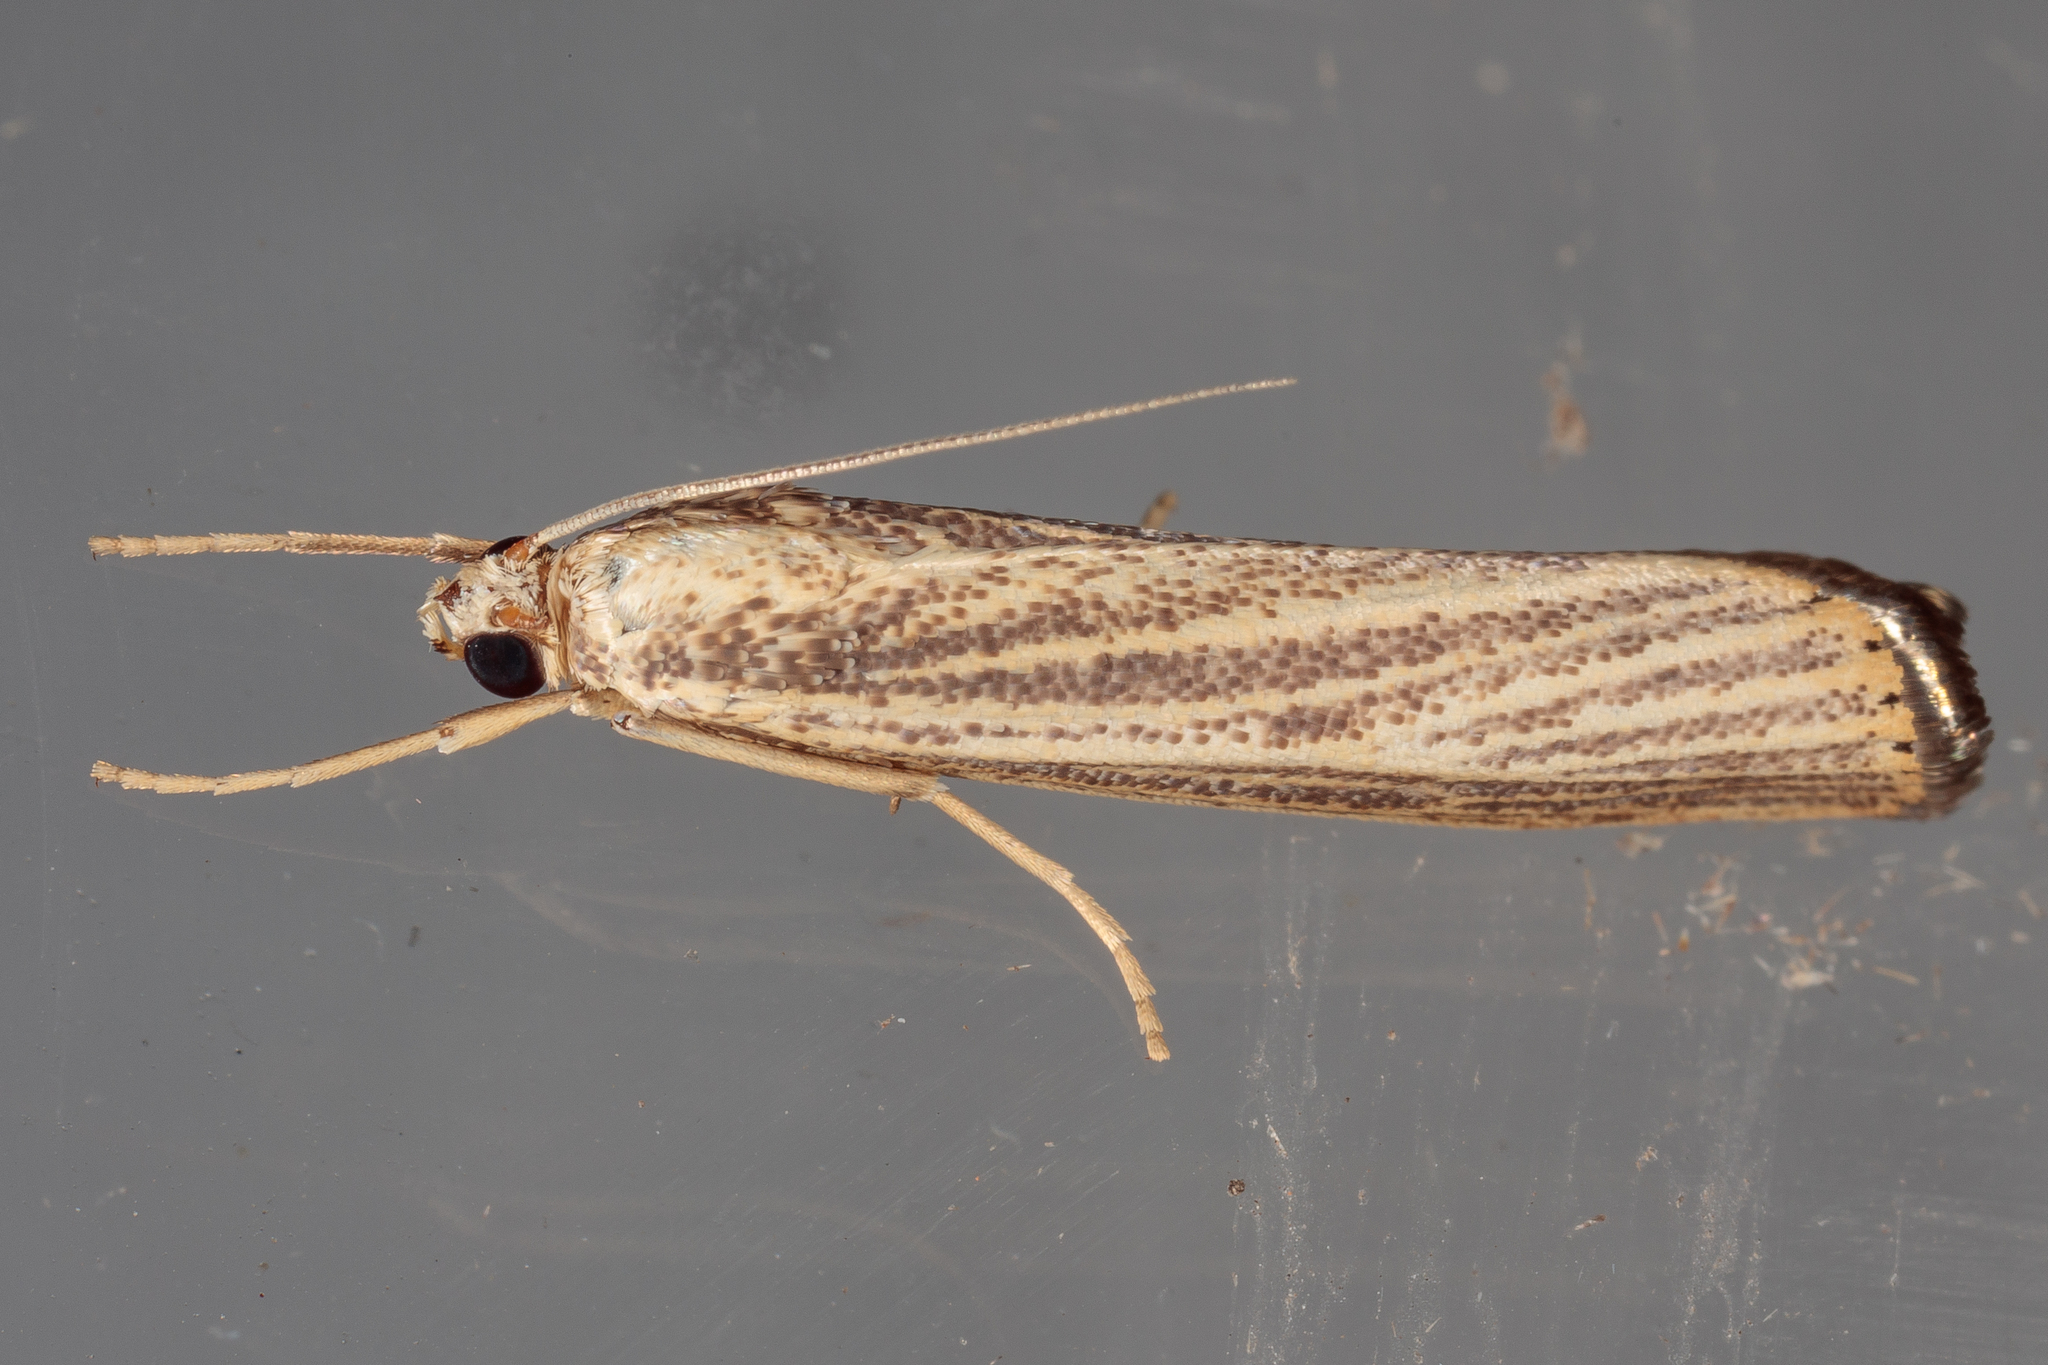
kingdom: Animalia
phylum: Arthropoda
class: Insecta
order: Lepidoptera
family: Crambidae
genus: Agriphila
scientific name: Agriphila vulgivagellus
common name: Vagabond crambus moth
